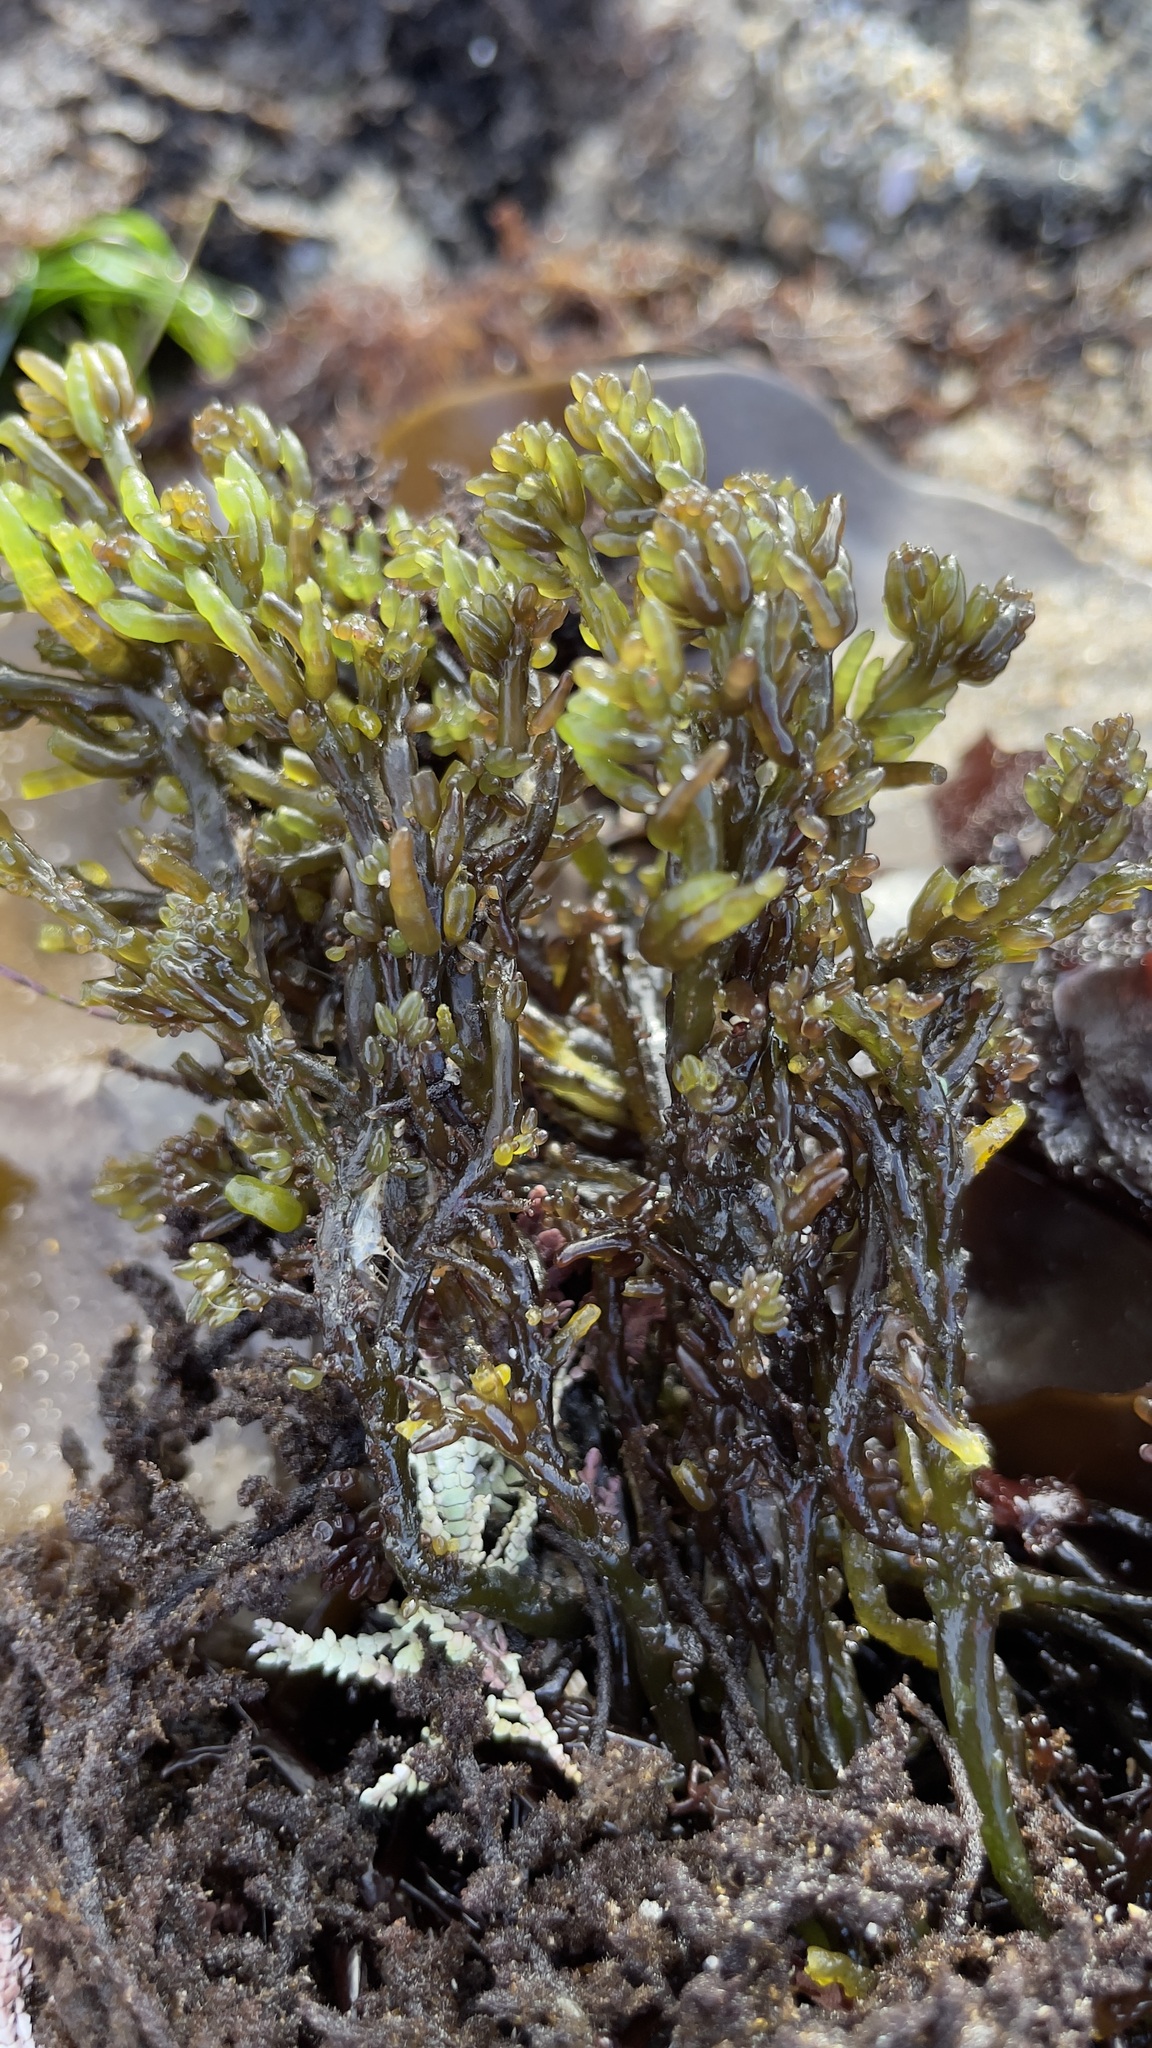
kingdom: Plantae
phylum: Rhodophyta
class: Florideophyceae
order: Rhodymeniales
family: Champiaceae
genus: Neogastroclonium
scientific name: Neogastroclonium subarticulatum
